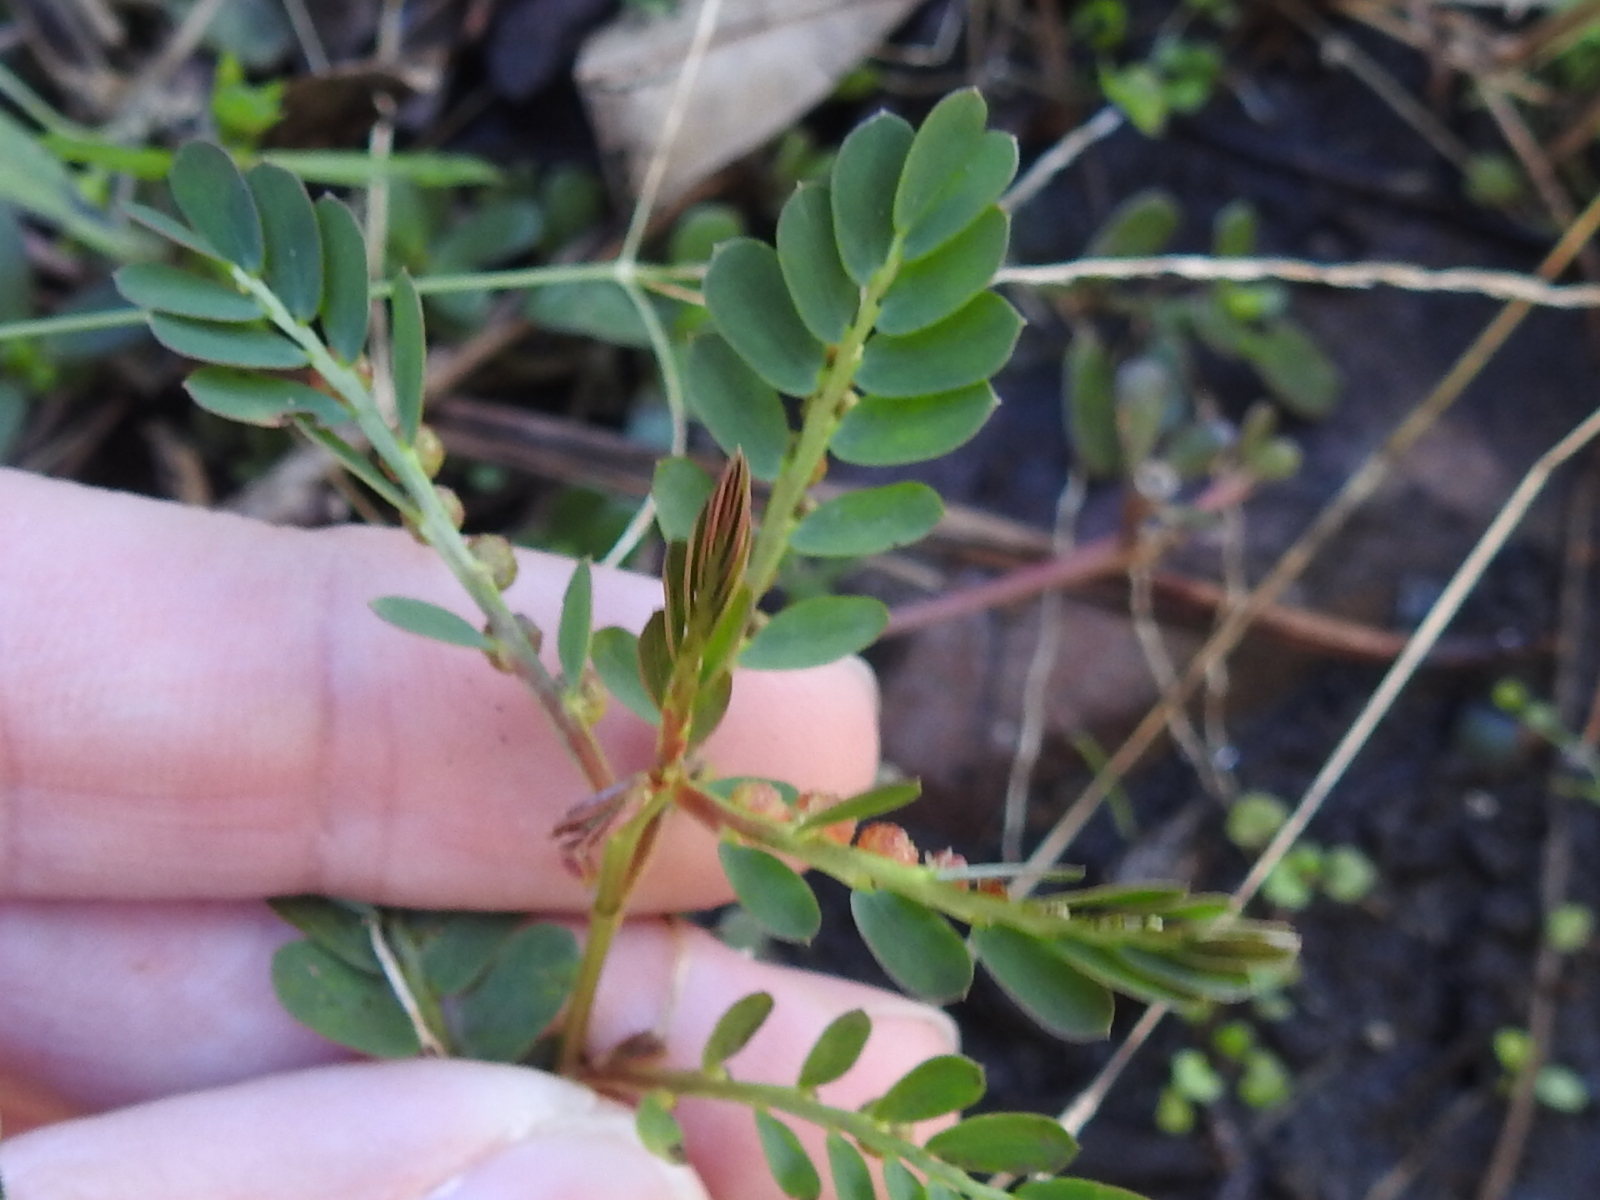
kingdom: Plantae
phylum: Tracheophyta
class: Magnoliopsida
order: Malpighiales
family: Phyllanthaceae
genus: Phyllanthus
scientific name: Phyllanthus urinaria
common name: Chamber bitter
